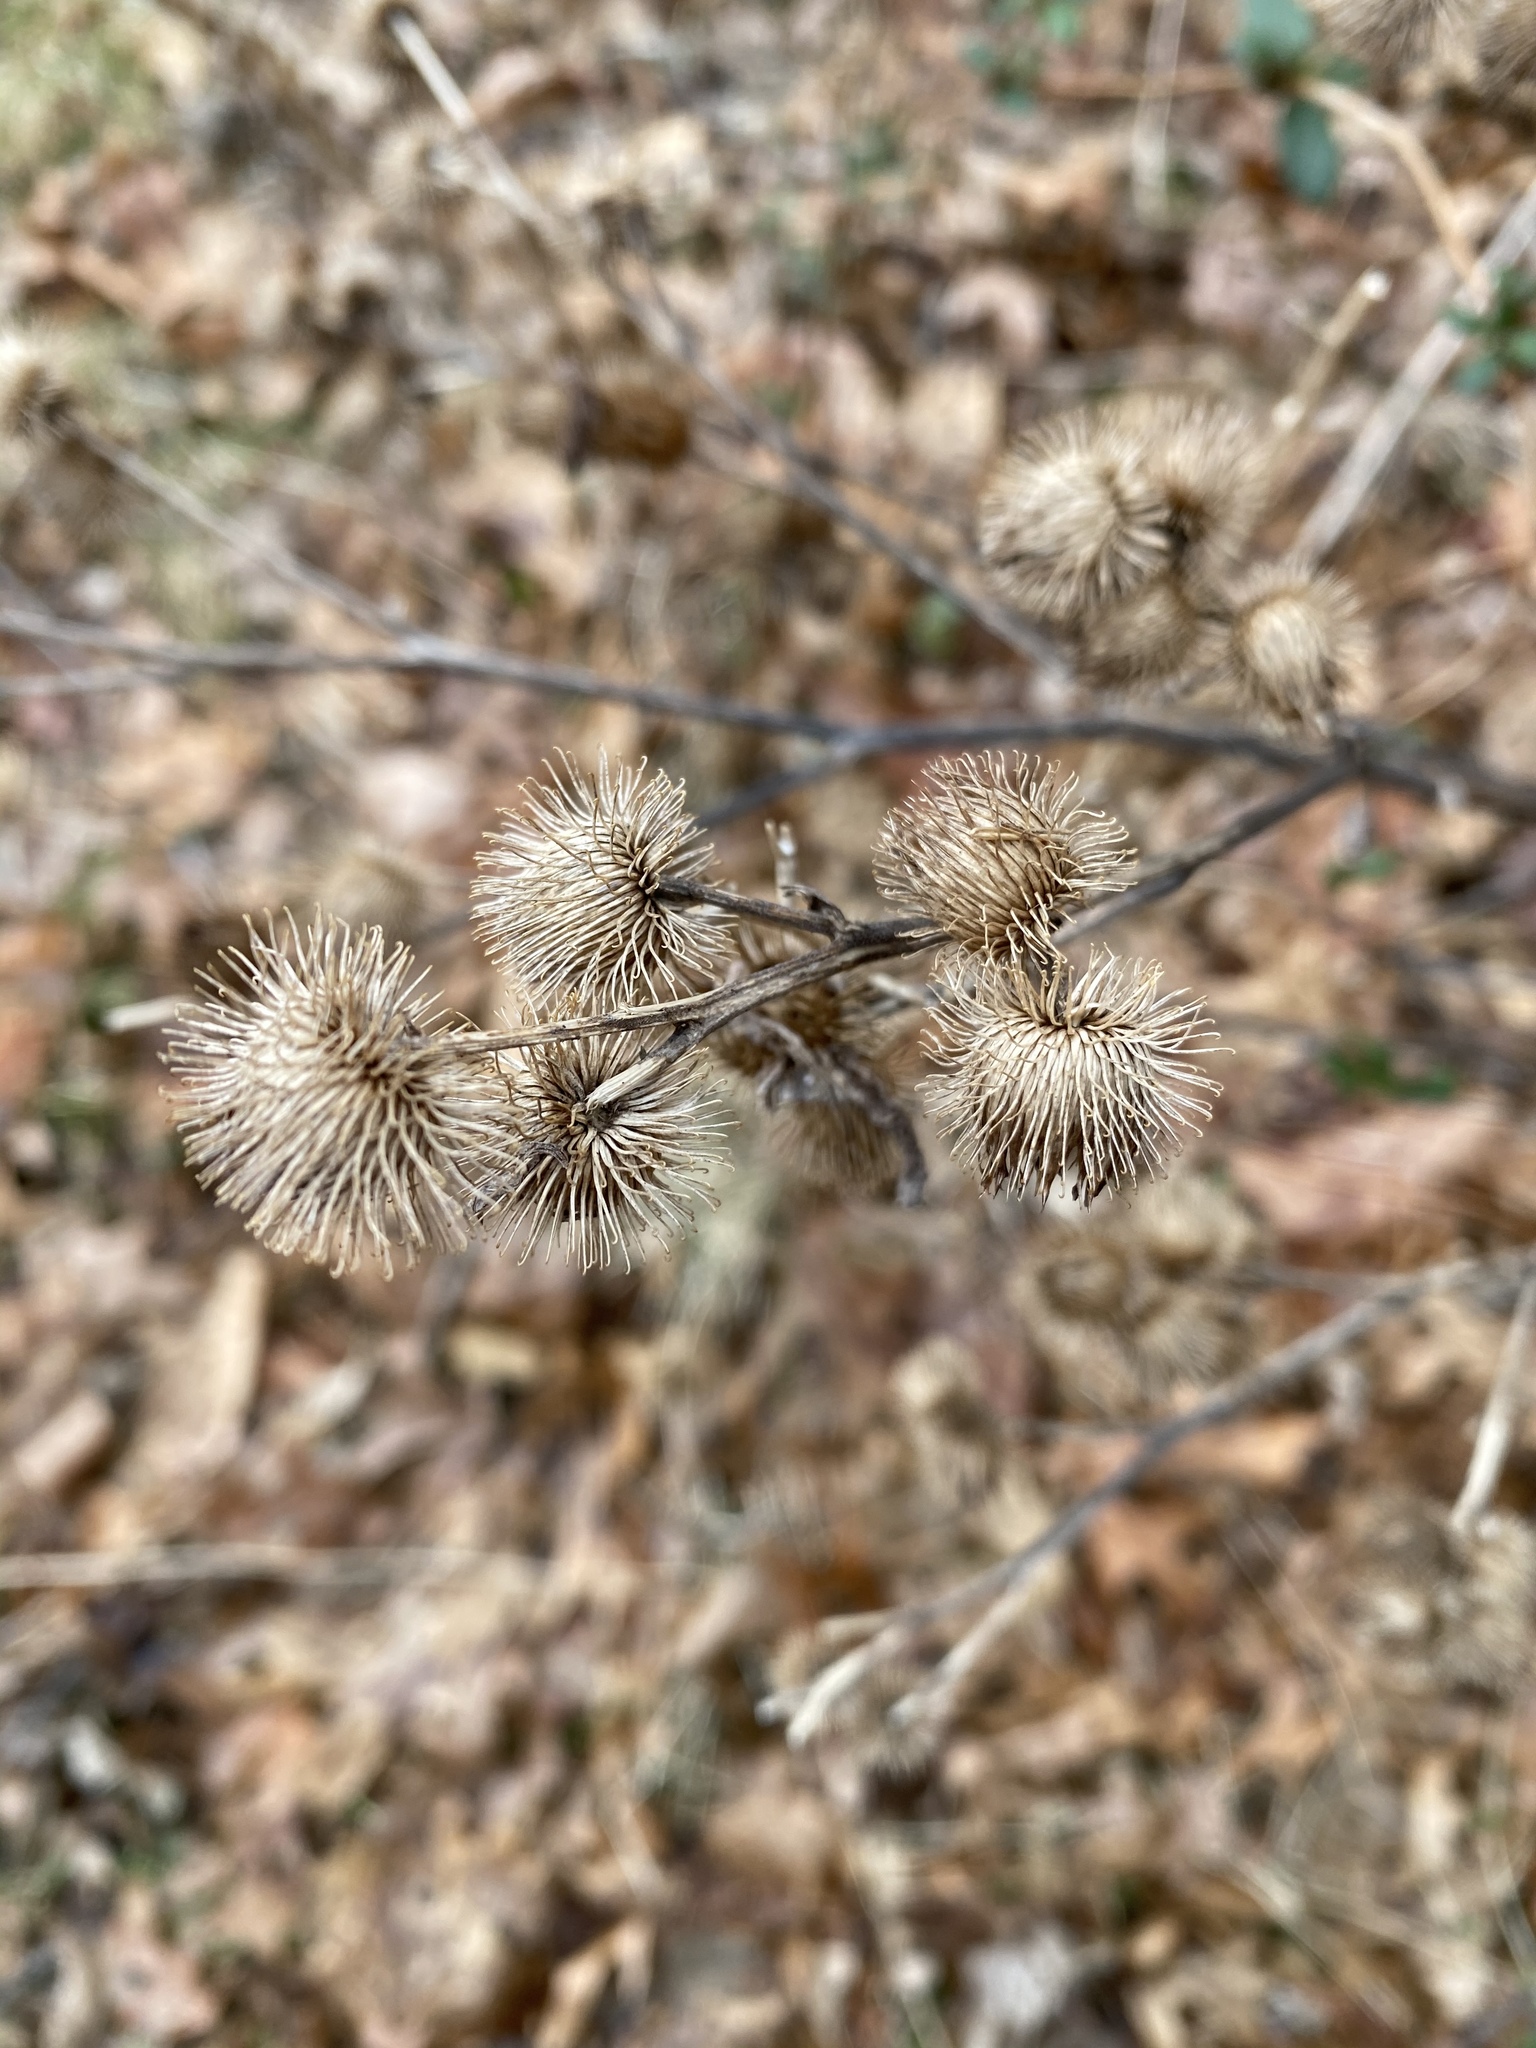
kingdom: Plantae
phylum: Tracheophyta
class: Magnoliopsida
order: Asterales
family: Asteraceae
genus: Arctium
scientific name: Arctium minus
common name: Lesser burdock
